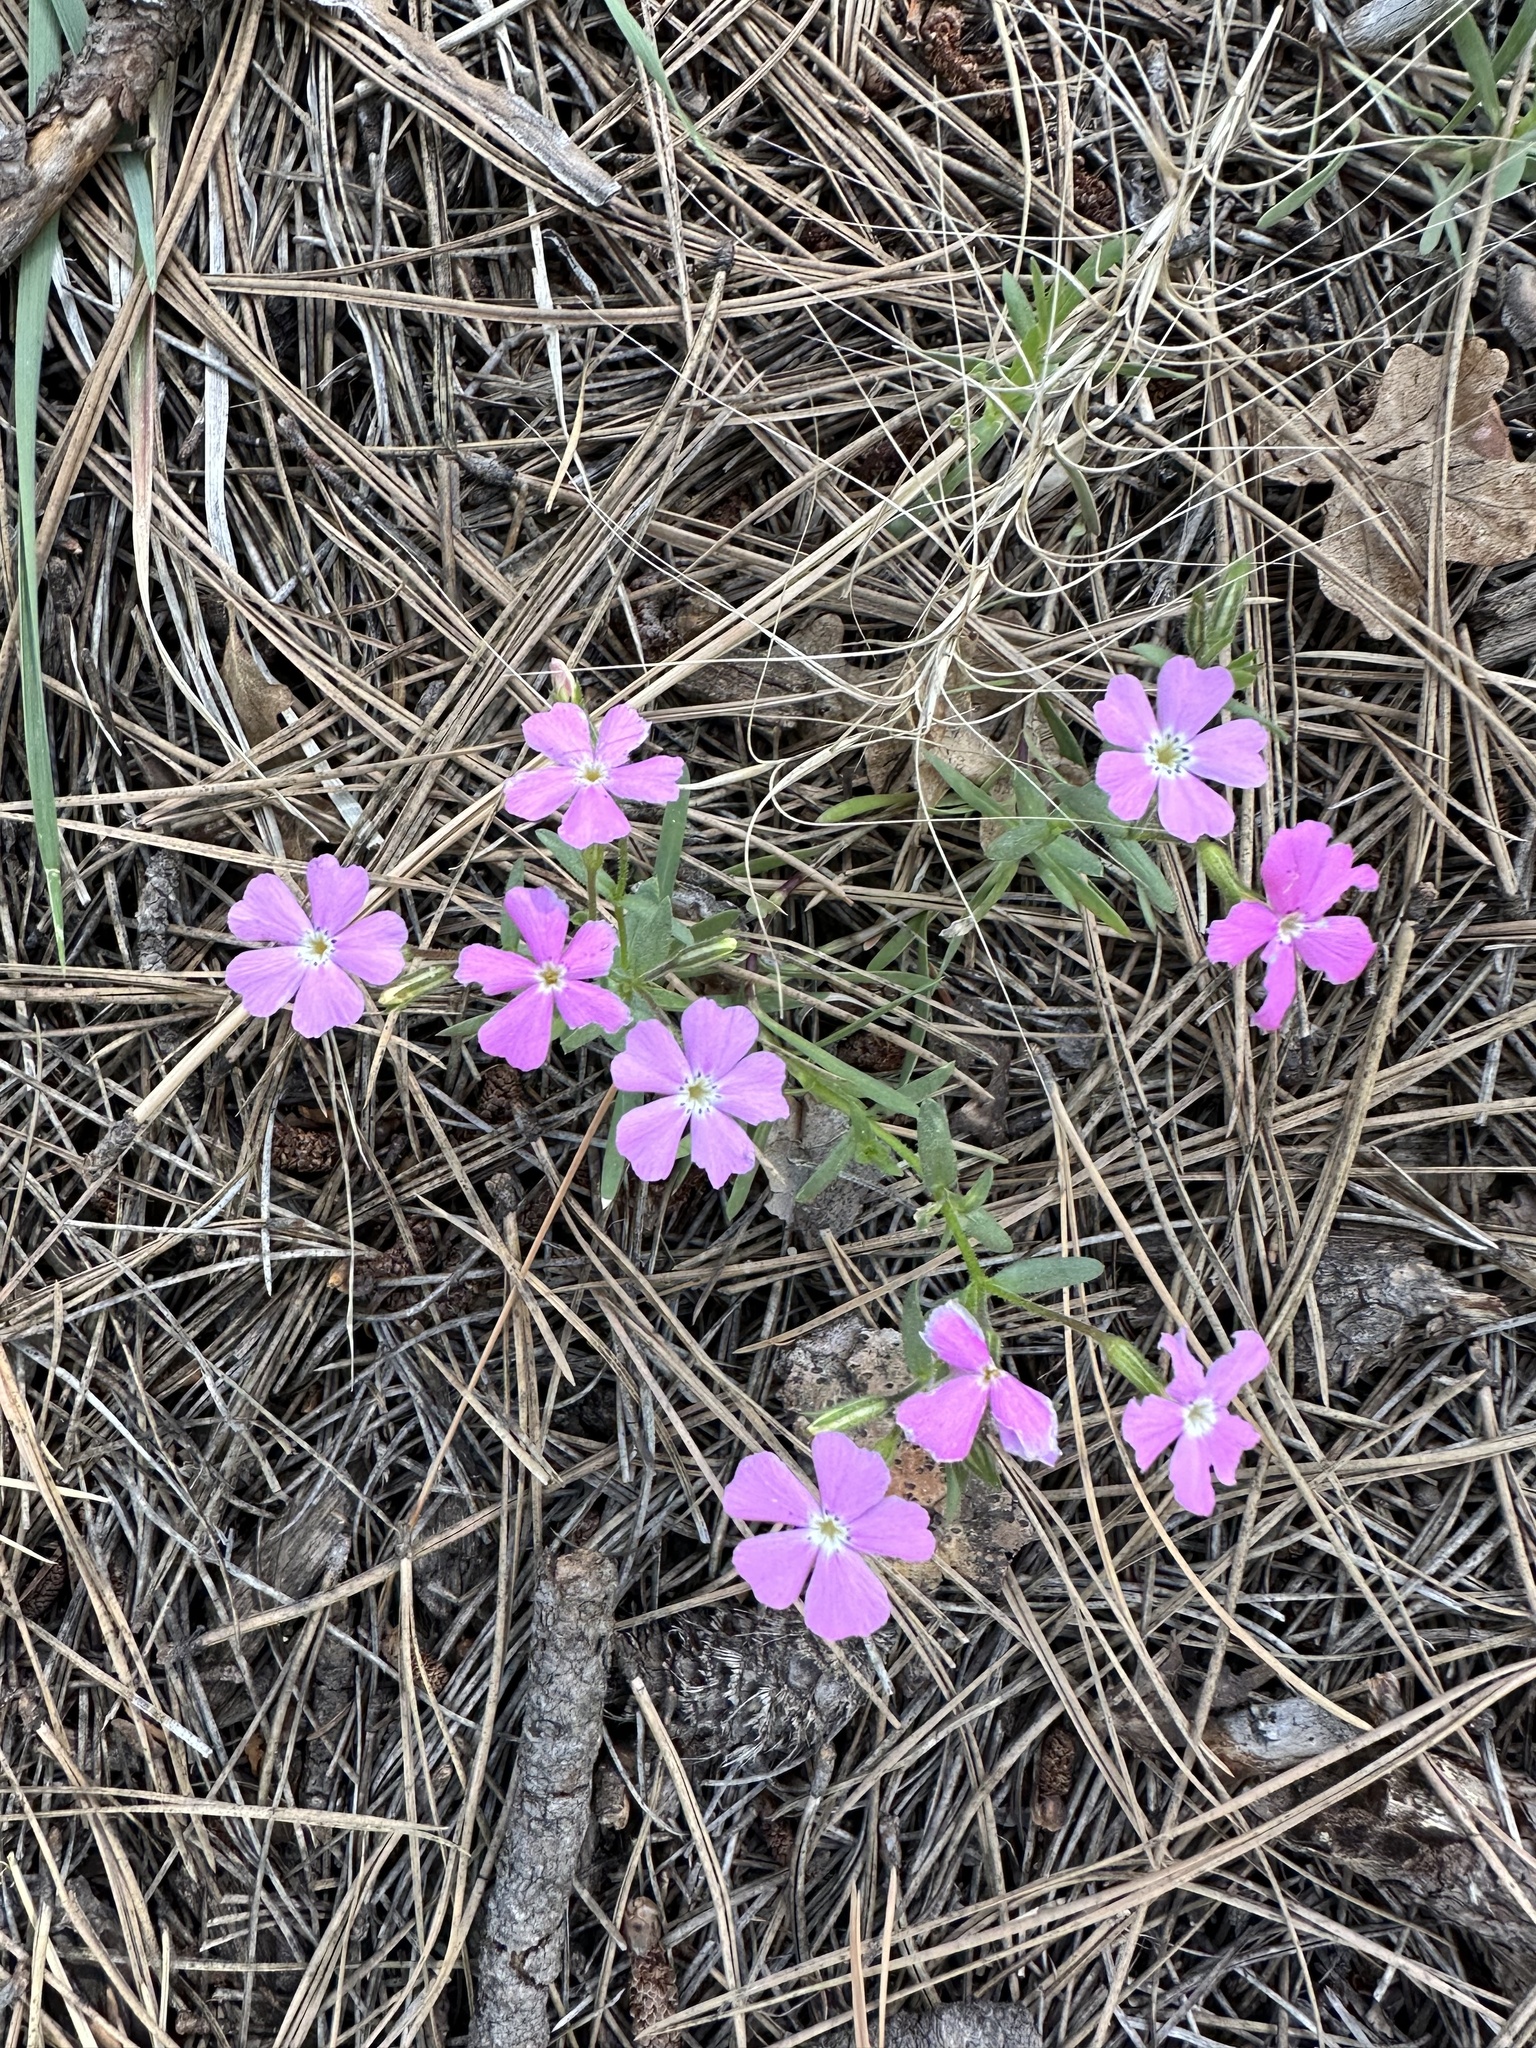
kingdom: Plantae
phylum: Tracheophyta
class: Magnoliopsida
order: Ericales
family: Polemoniaceae
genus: Phlox
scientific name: Phlox woodhousei
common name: Star phlox
